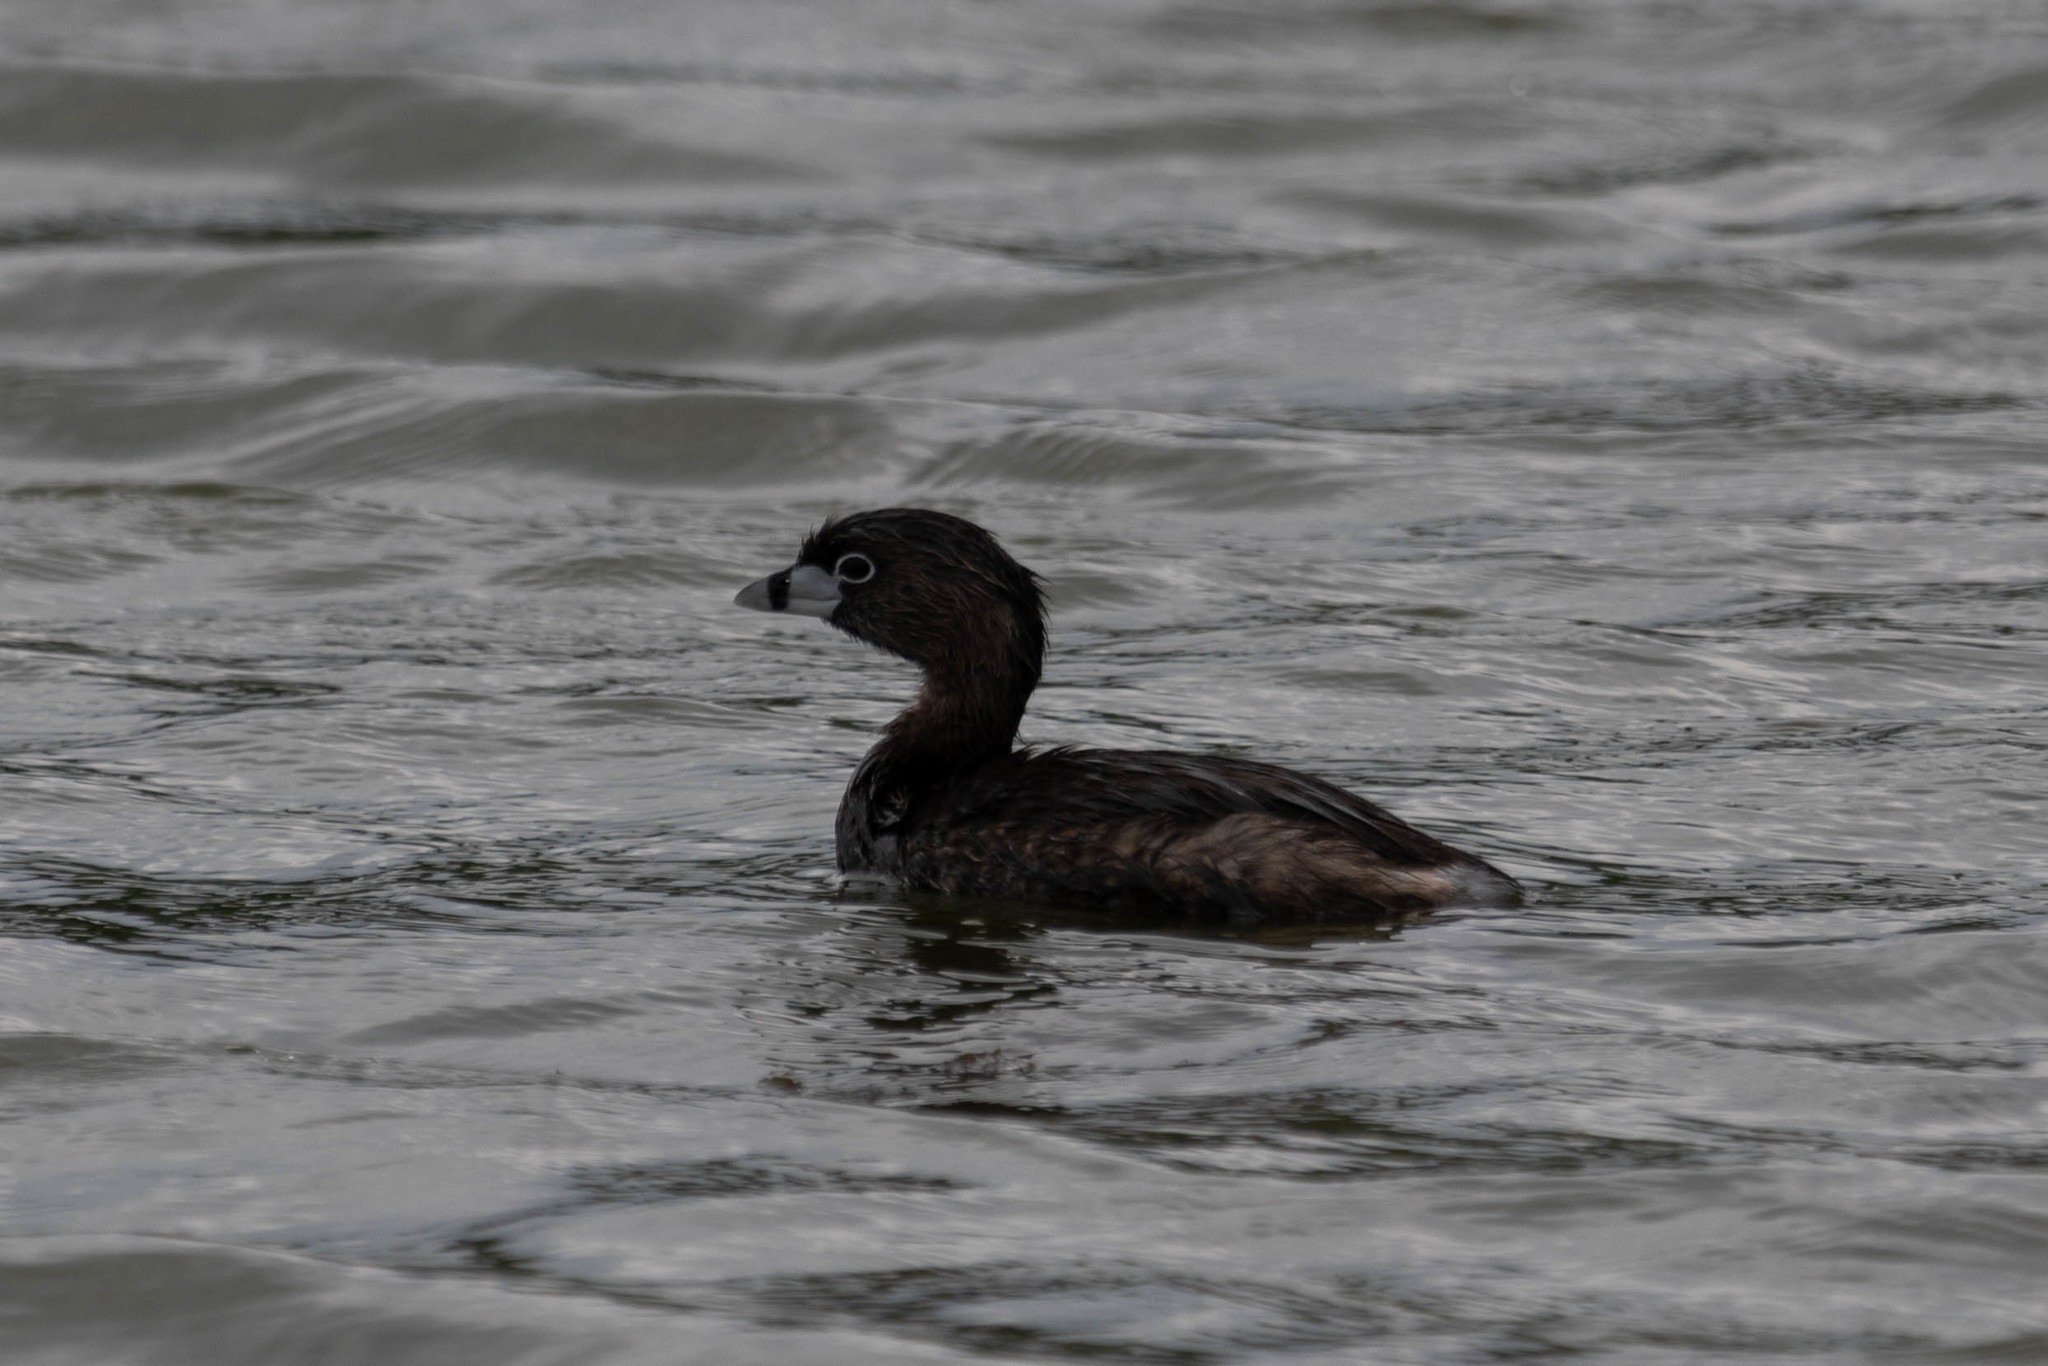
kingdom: Animalia
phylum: Chordata
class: Aves
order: Podicipediformes
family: Podicipedidae
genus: Podilymbus
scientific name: Podilymbus podiceps
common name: Pied-billed grebe
